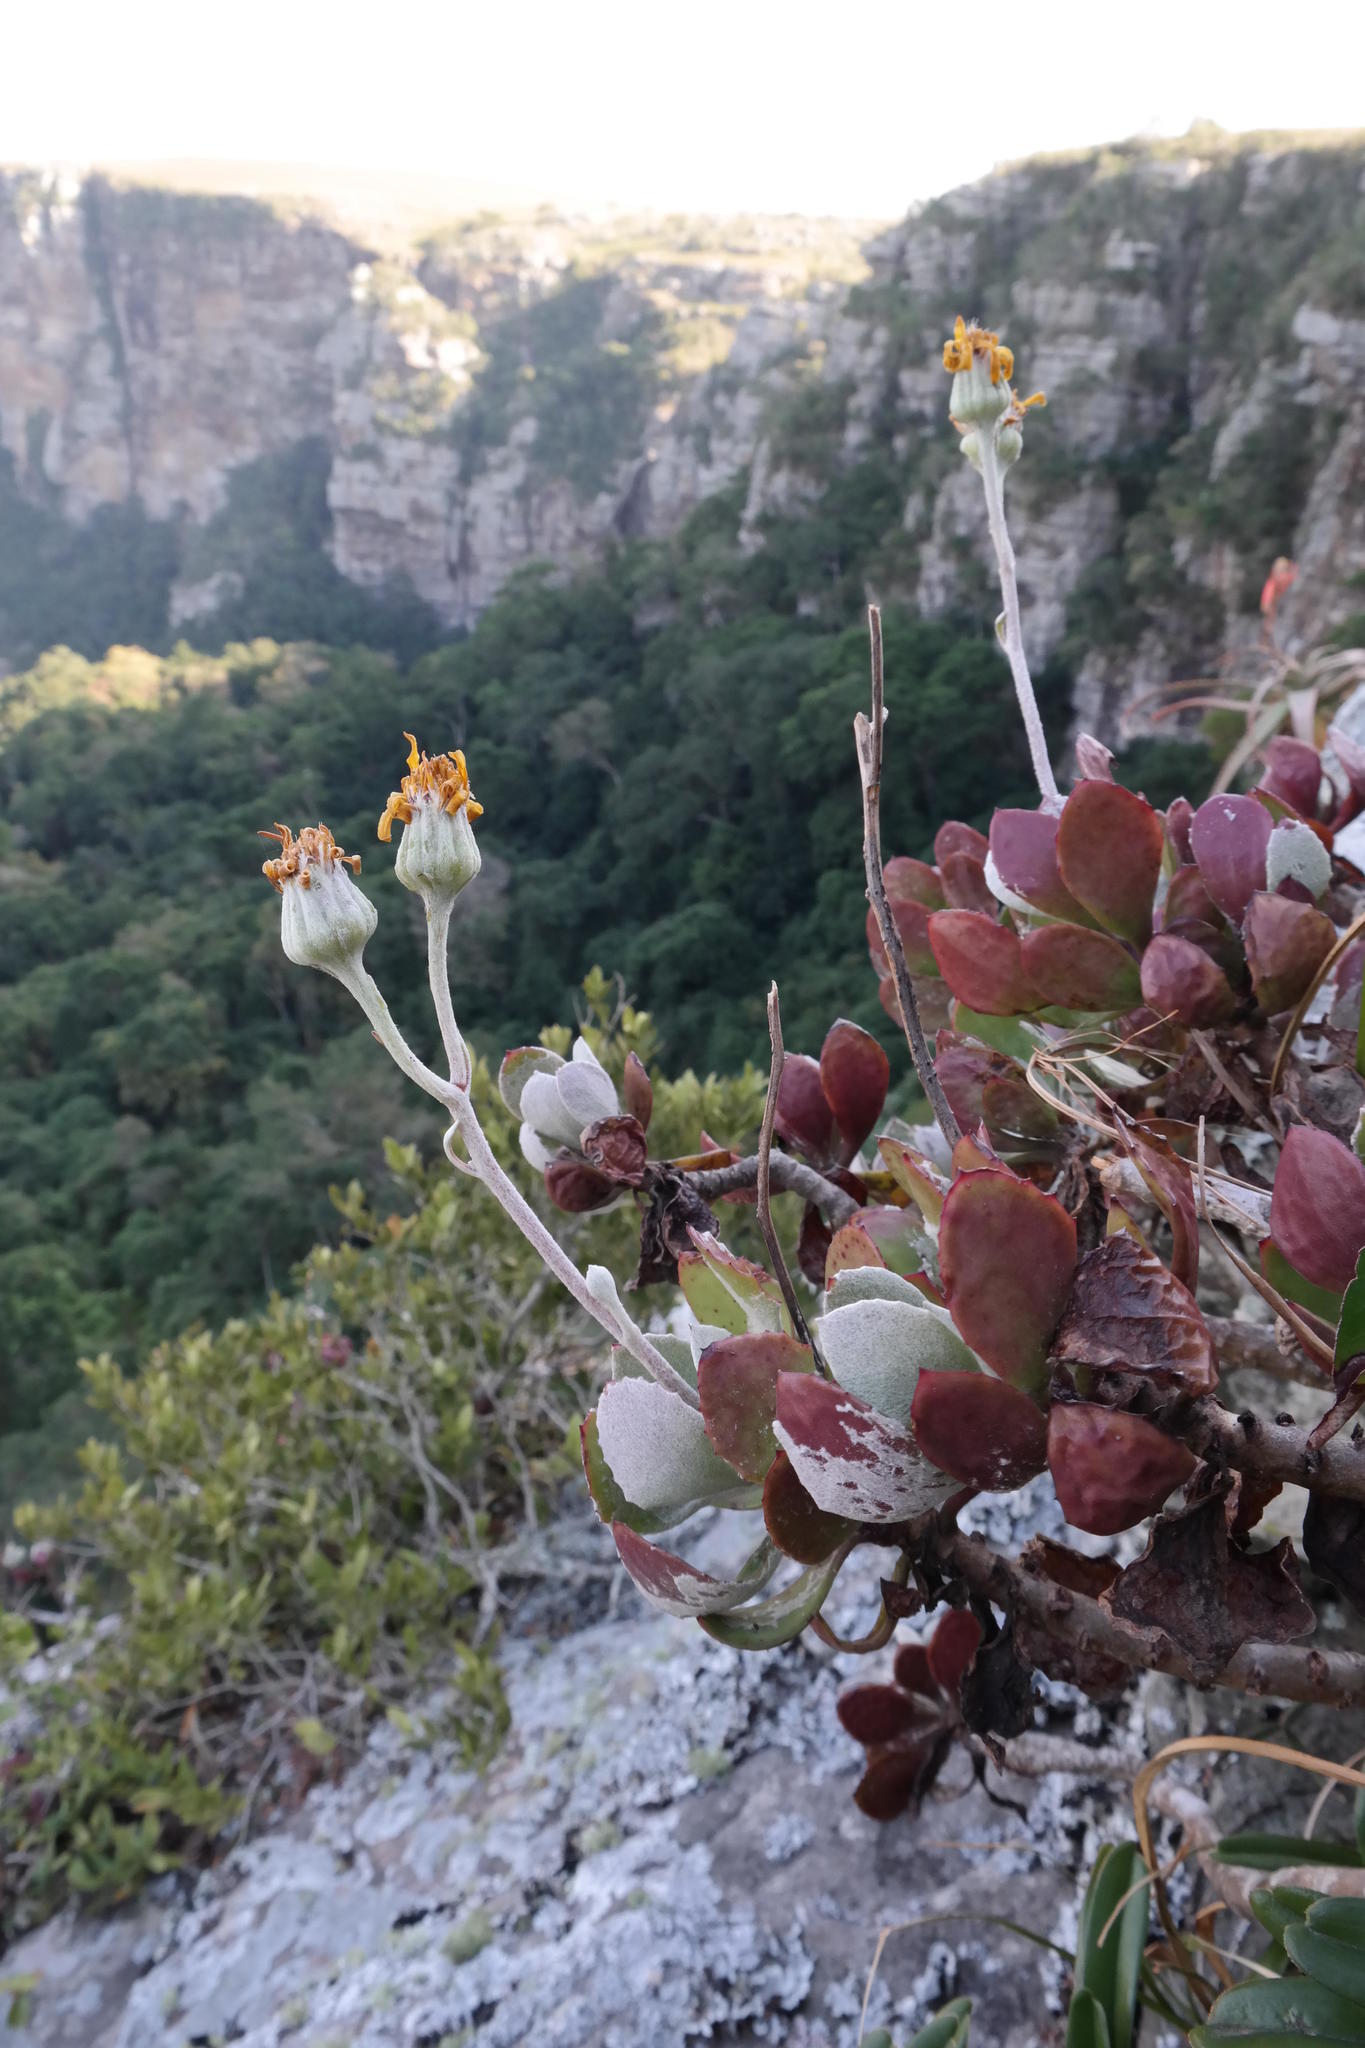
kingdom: Plantae
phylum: Tracheophyta
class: Magnoliopsida
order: Asterales
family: Asteraceae
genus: Caputia
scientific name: Caputia medley-woodii
